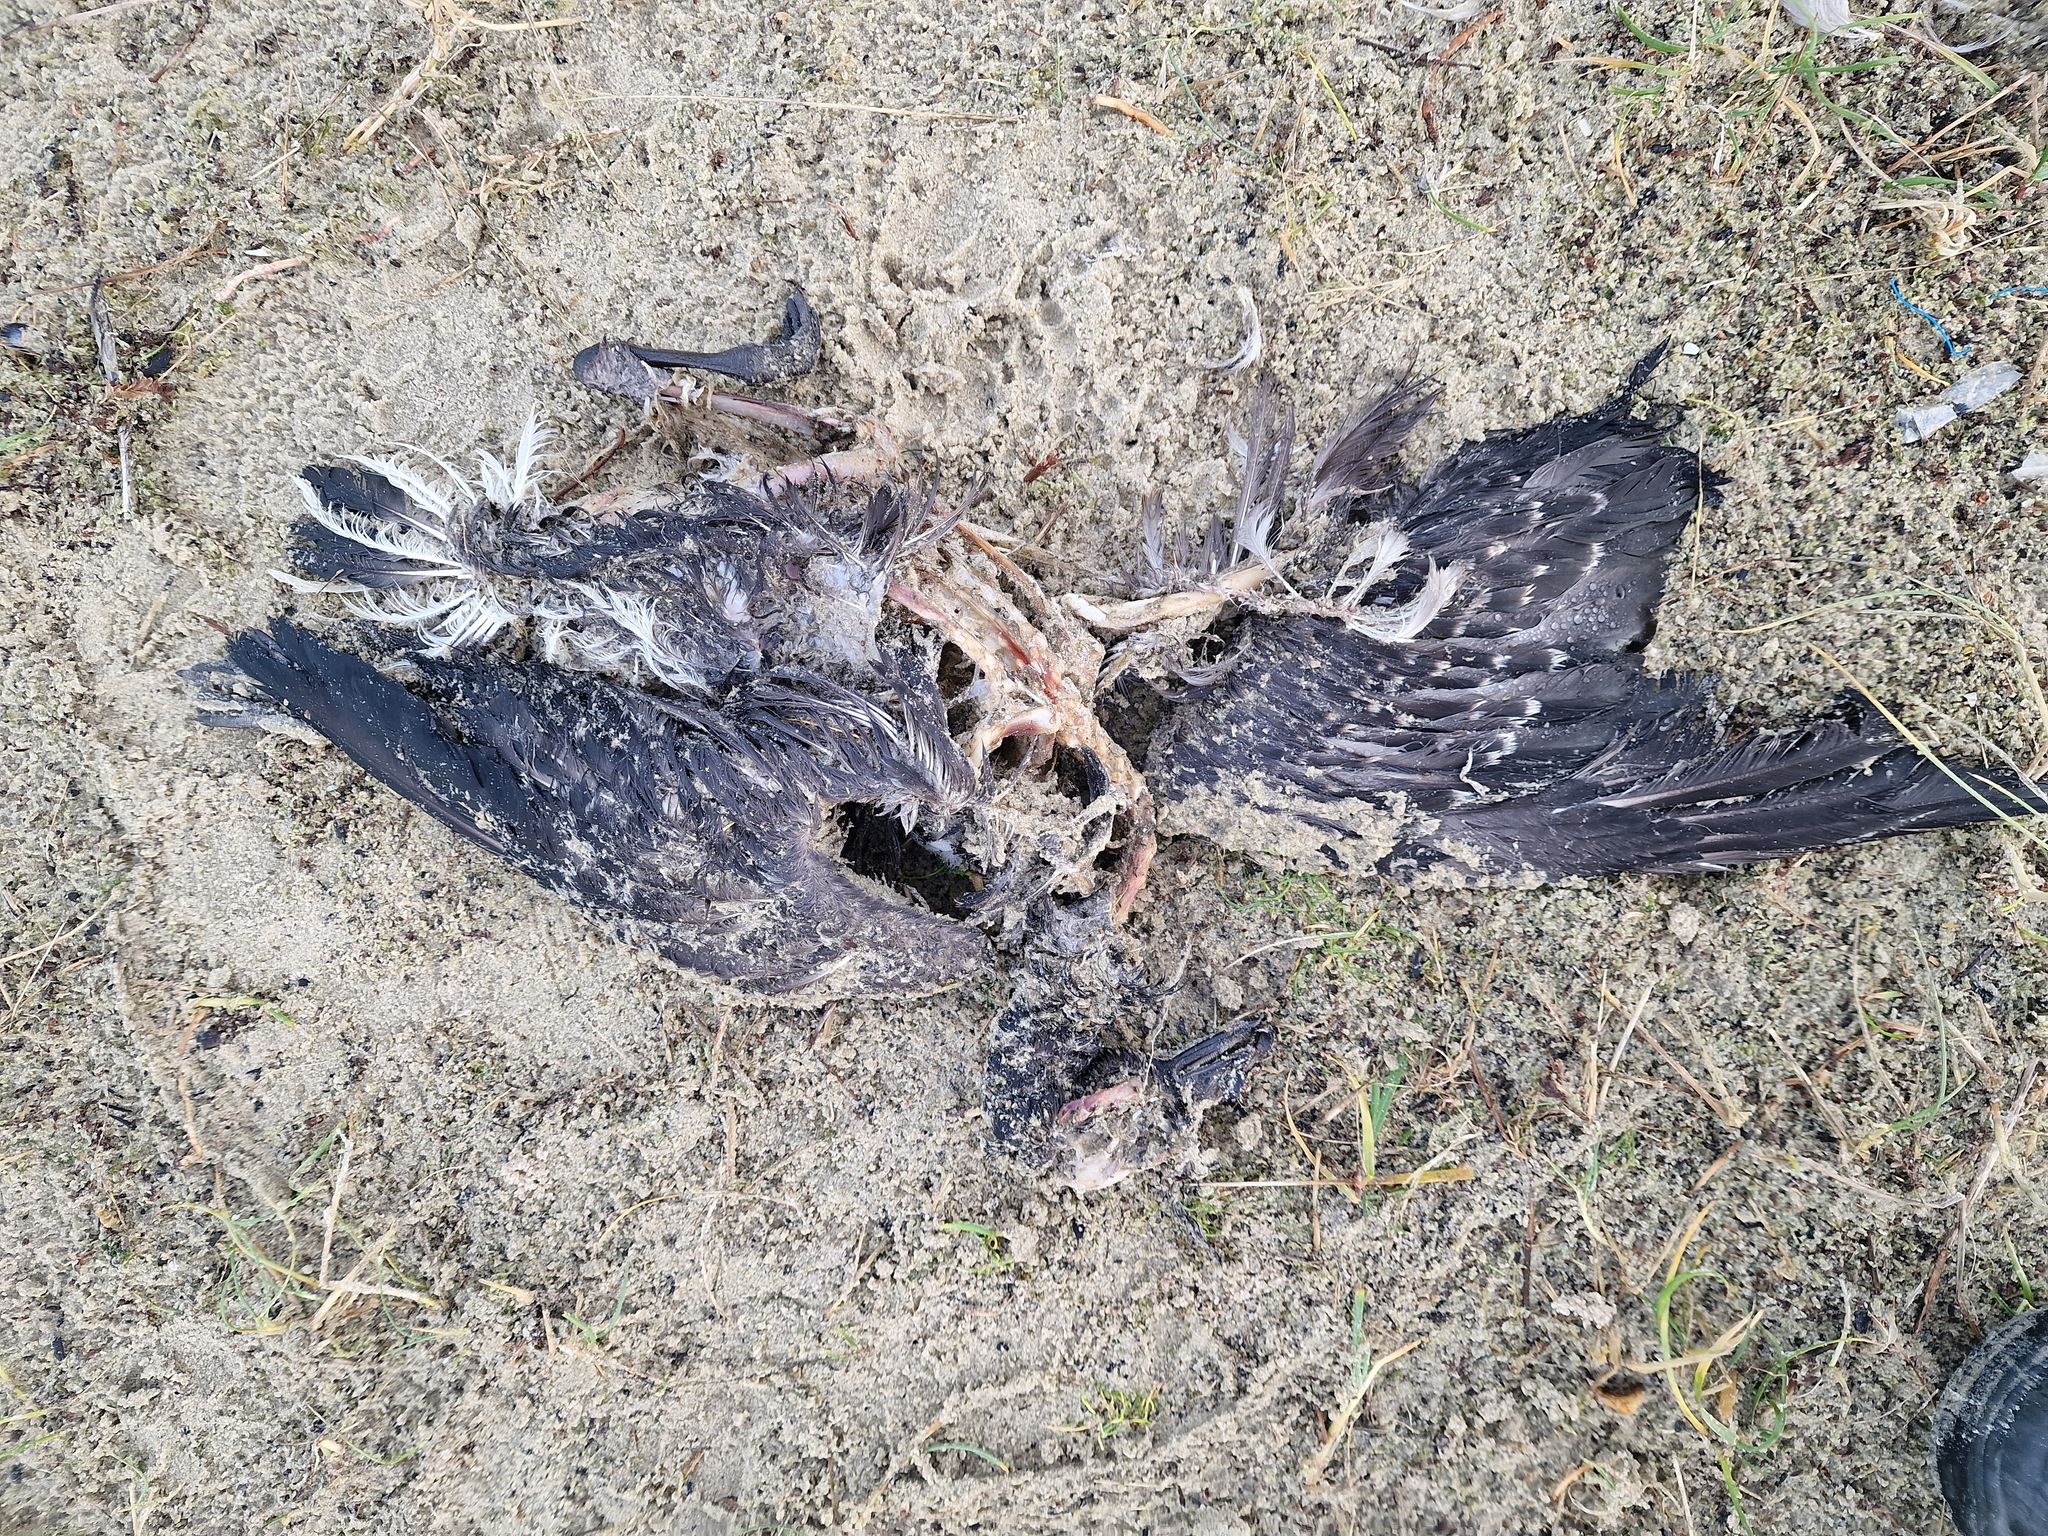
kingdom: Animalia
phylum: Chordata
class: Aves
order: Anseriformes
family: Anatidae
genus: Branta
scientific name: Branta bernicla
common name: Brant goose
